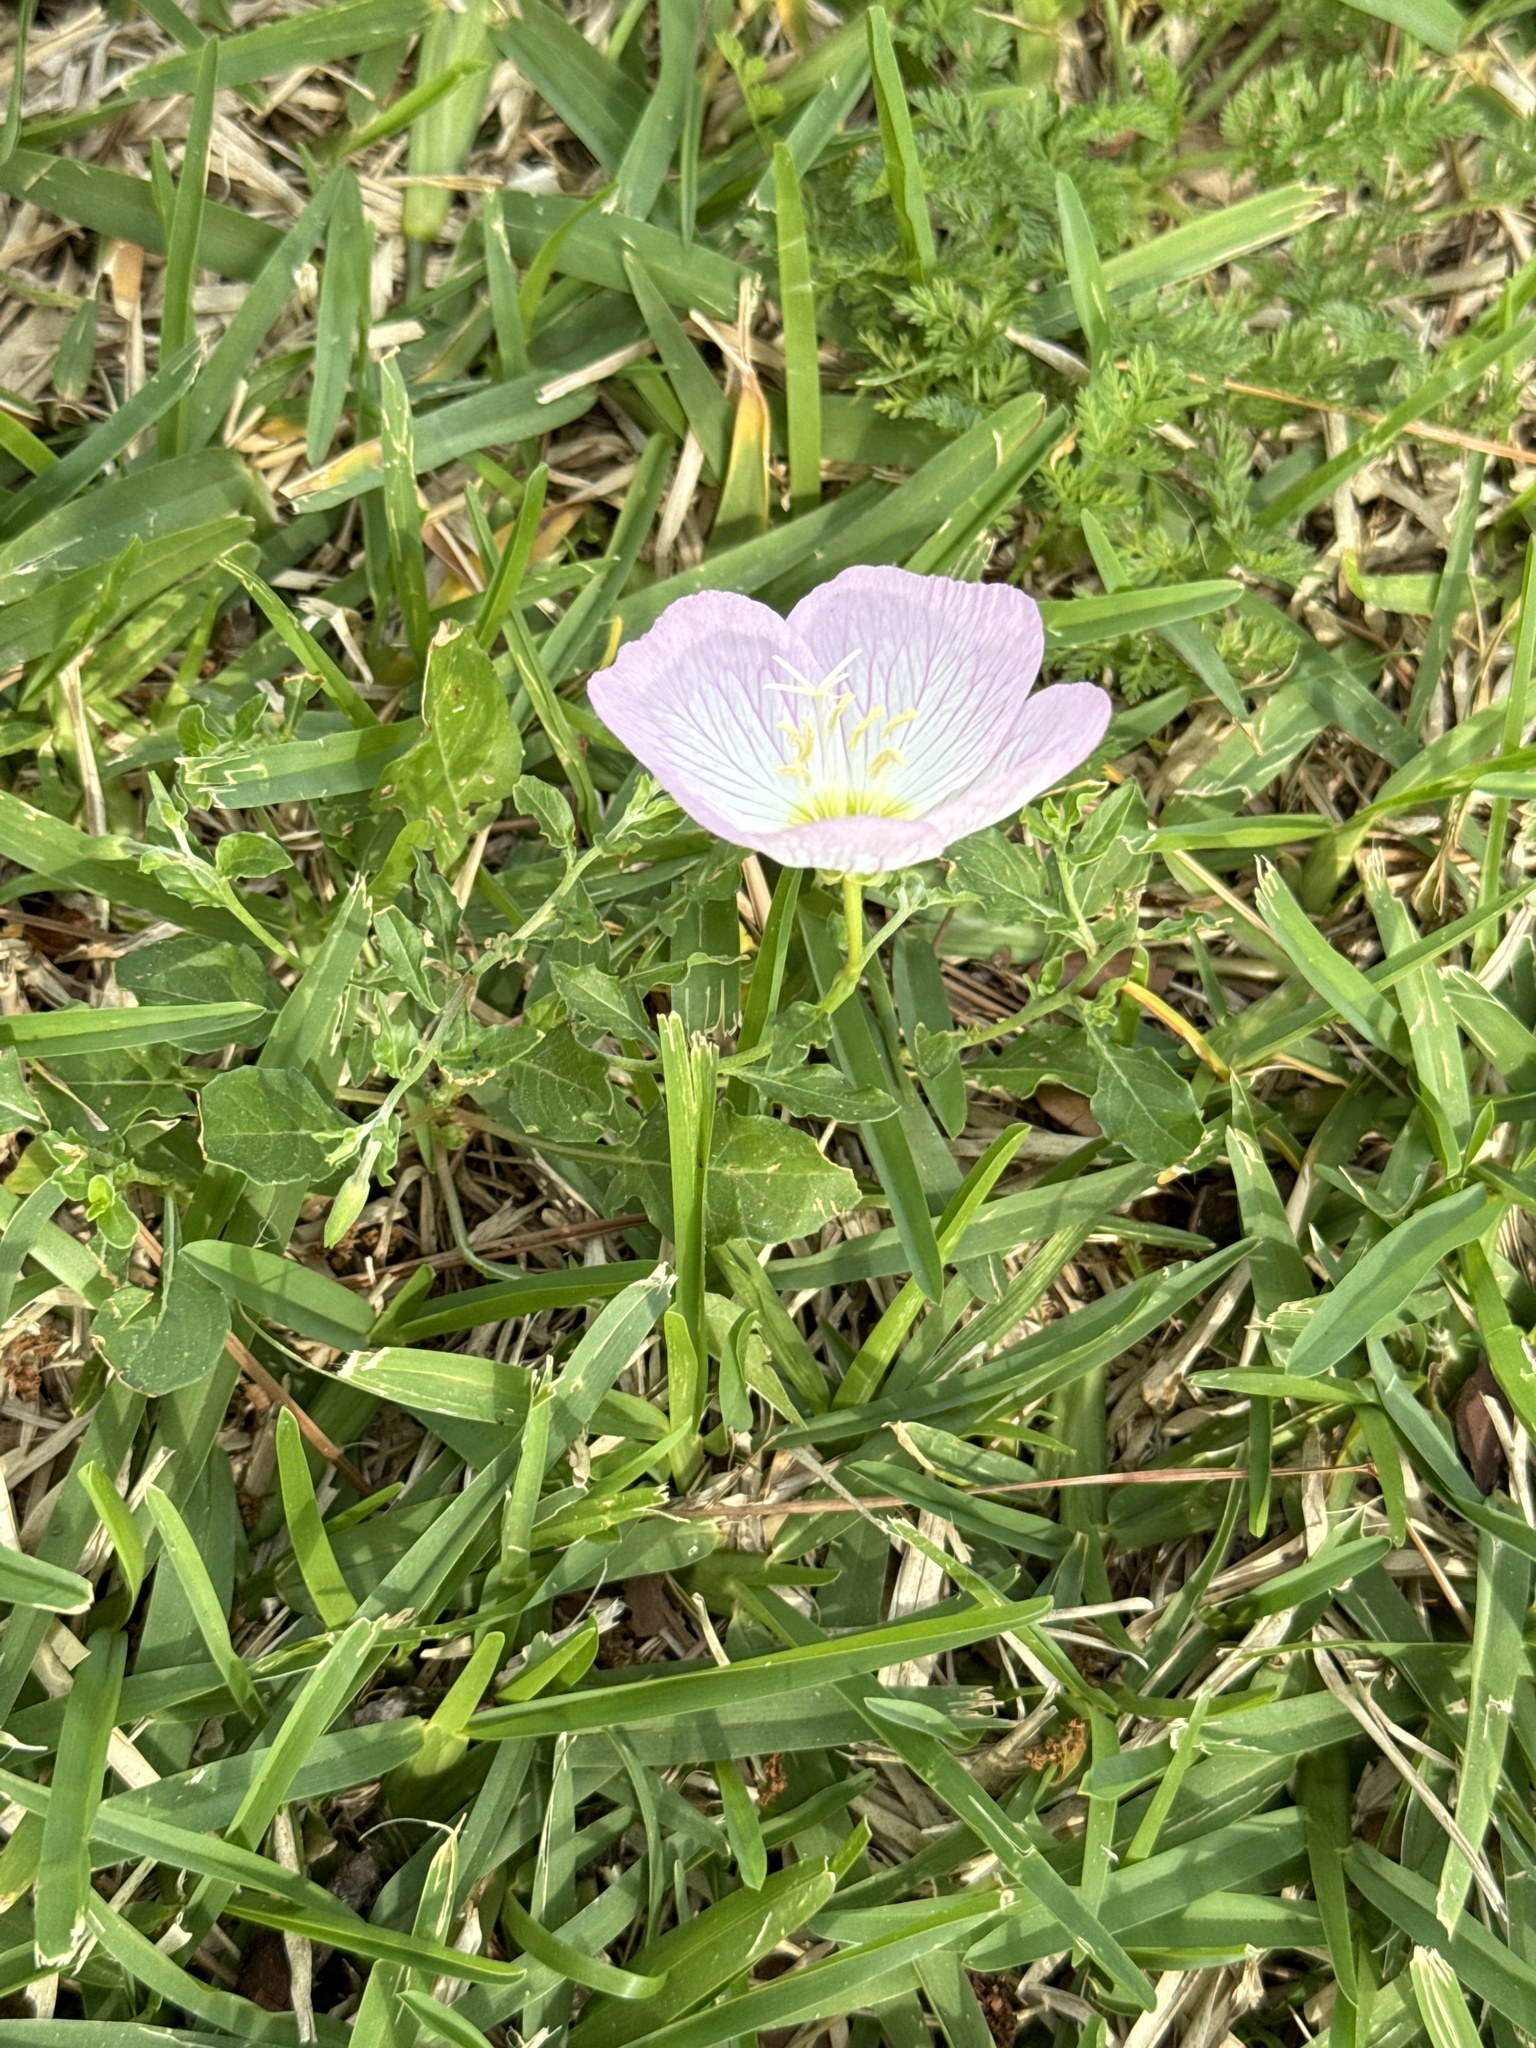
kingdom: Plantae
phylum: Tracheophyta
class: Magnoliopsida
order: Myrtales
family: Onagraceae
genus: Oenothera
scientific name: Oenothera speciosa
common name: White evening-primrose
